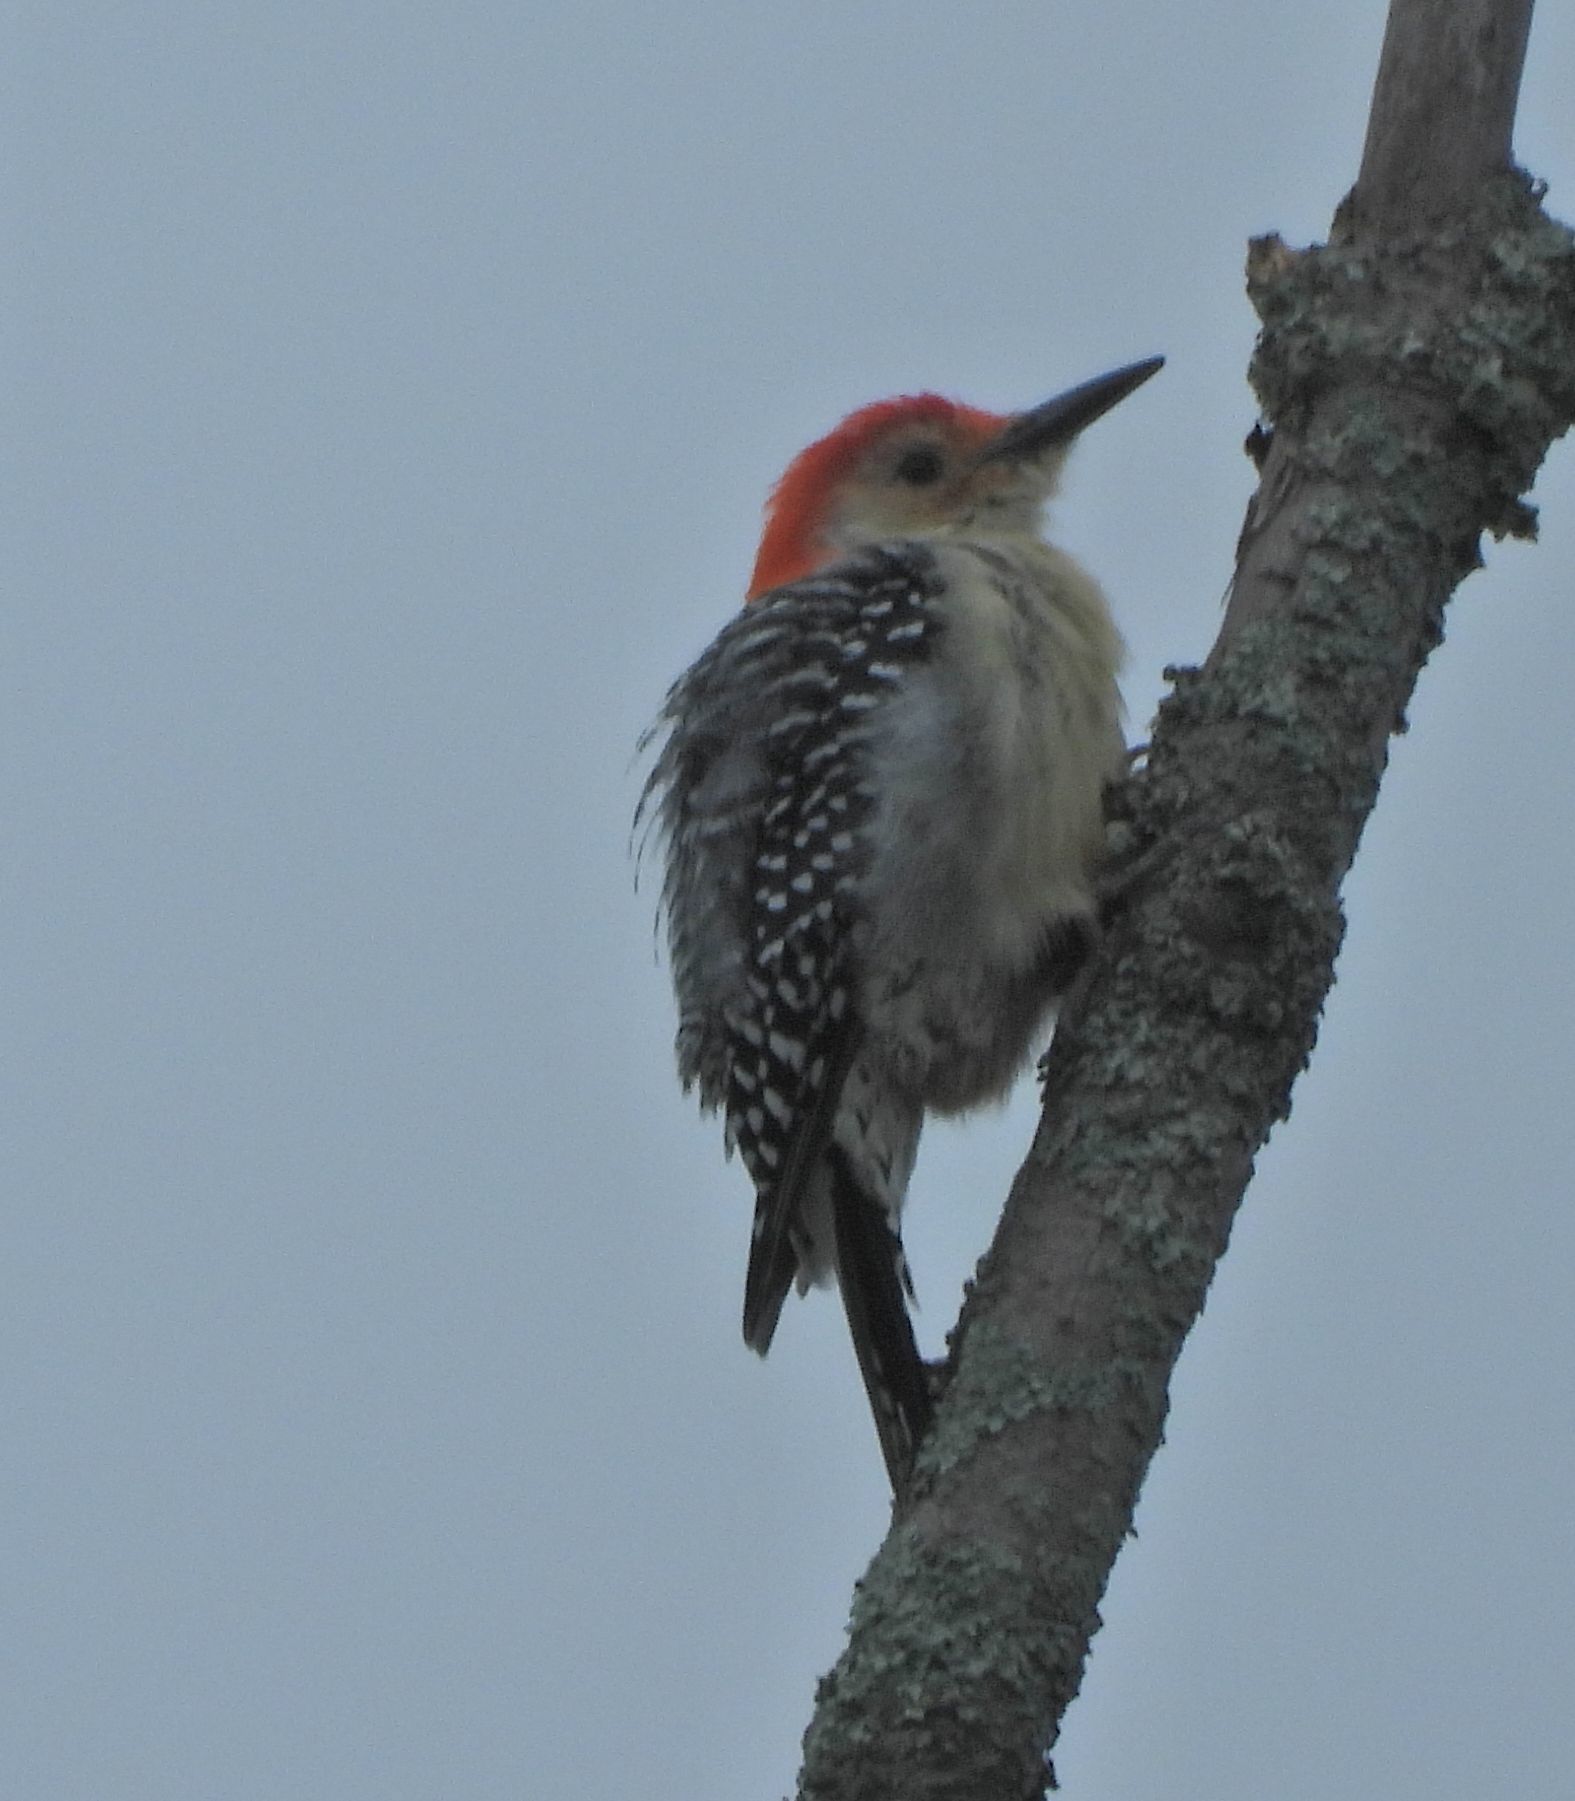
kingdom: Animalia
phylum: Chordata
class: Aves
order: Piciformes
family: Picidae
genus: Melanerpes
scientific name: Melanerpes carolinus
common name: Red-bellied woodpecker
